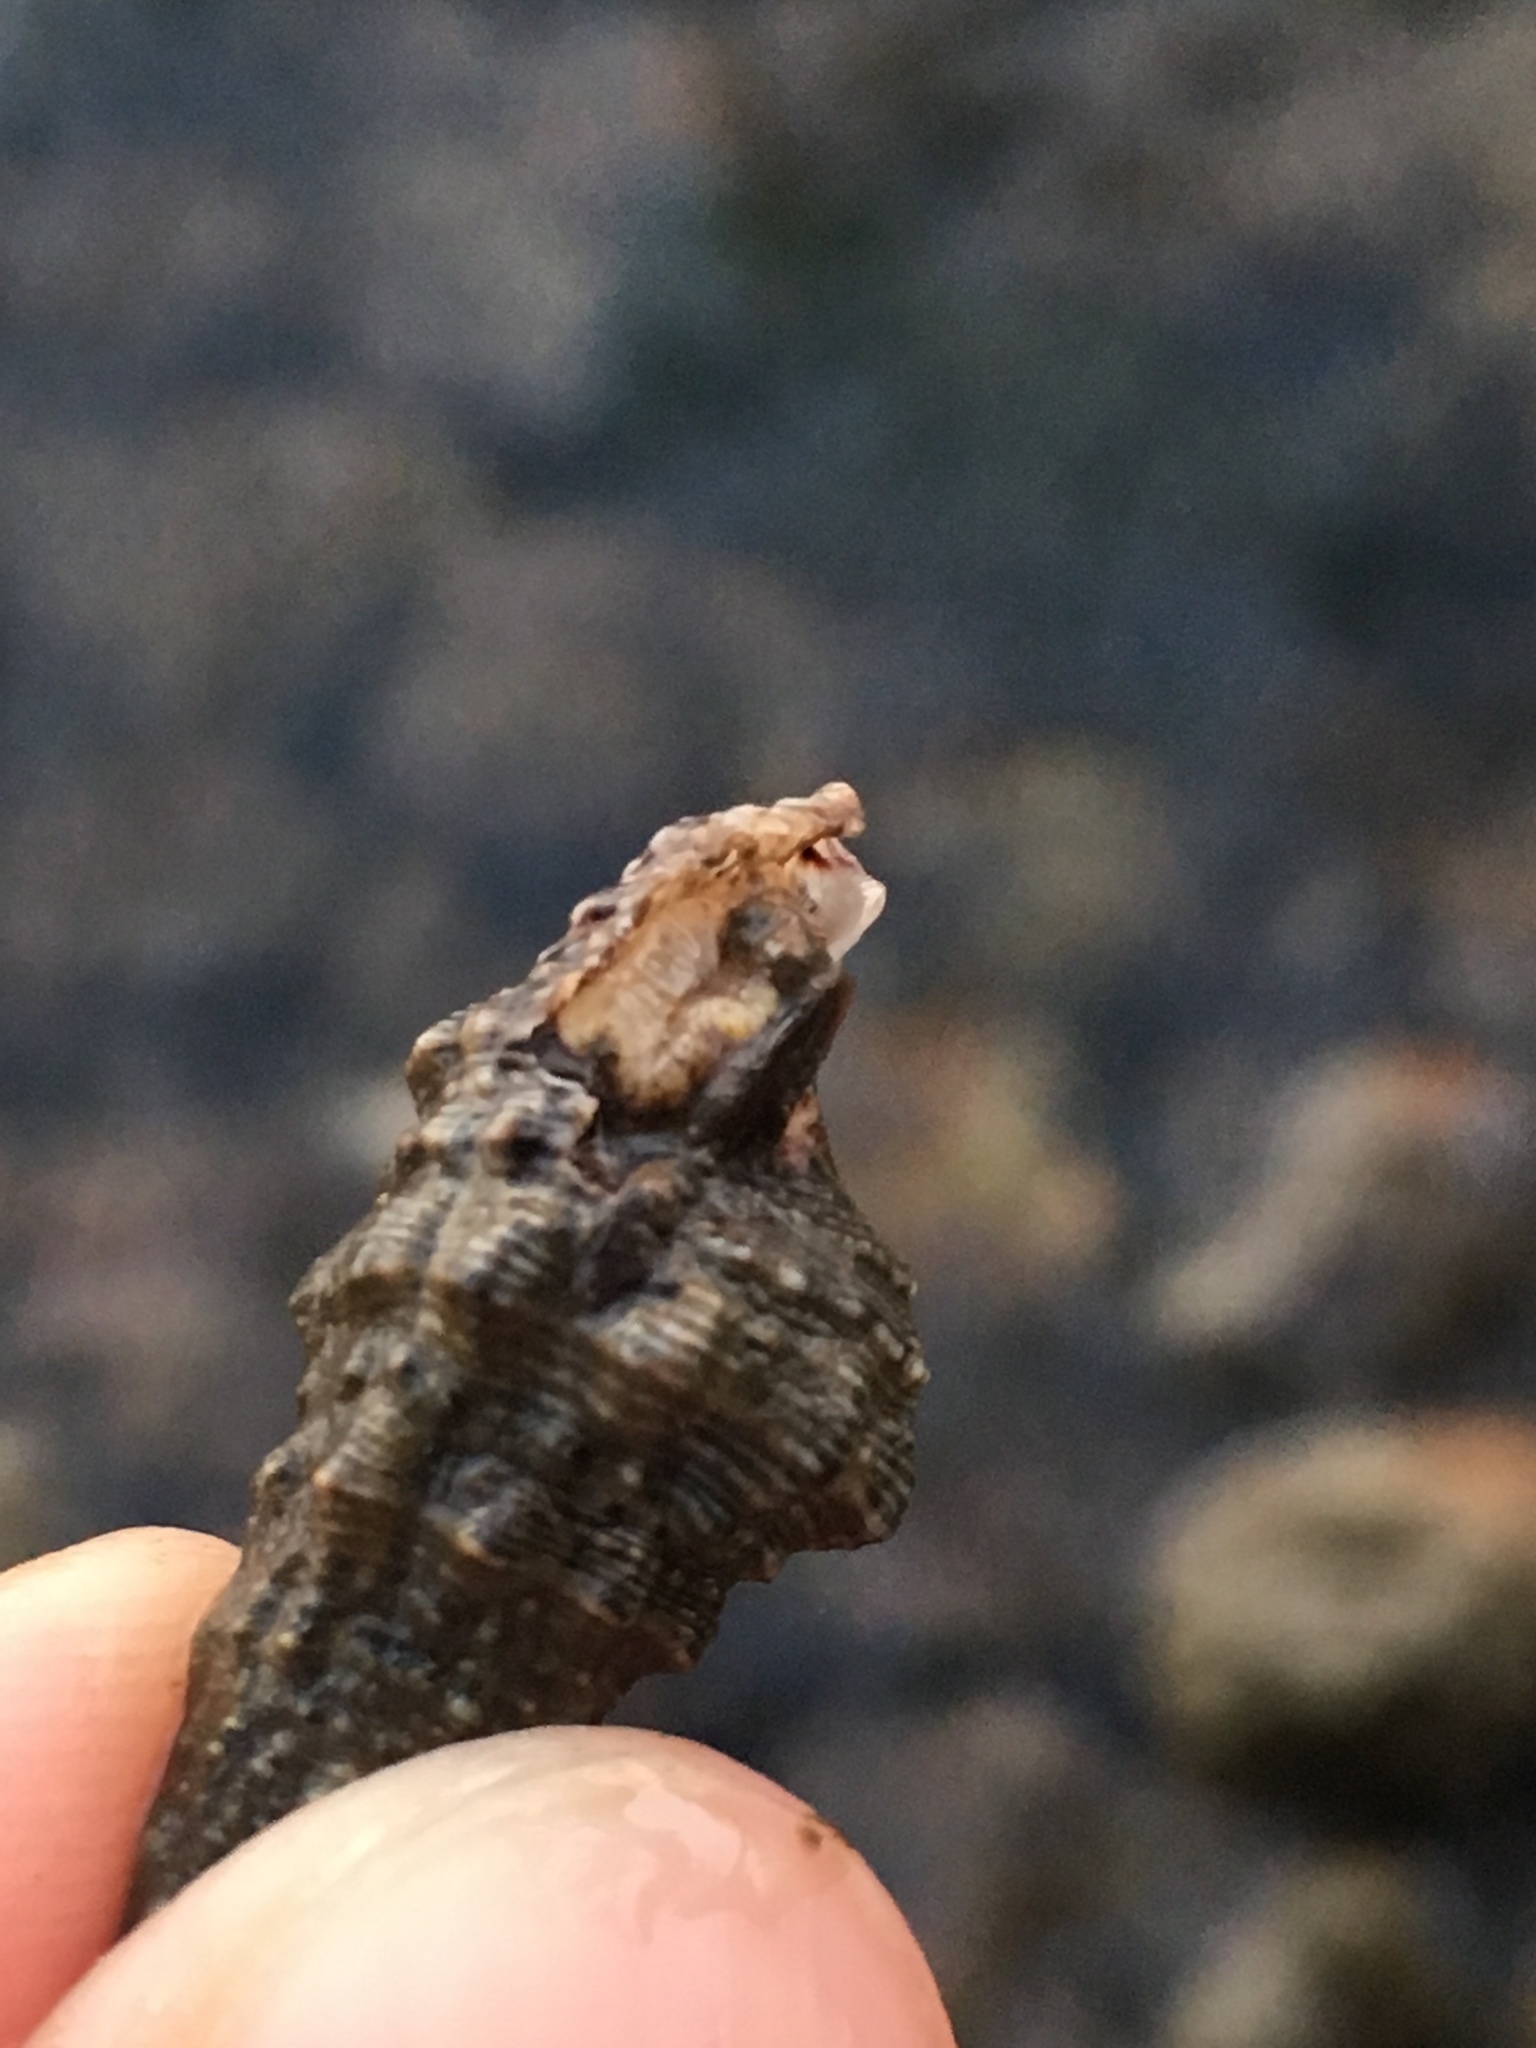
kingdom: Animalia
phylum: Mollusca
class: Gastropoda
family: Cerithiidae
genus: Cerithium
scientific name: Cerithium atratum
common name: Dark cerith
